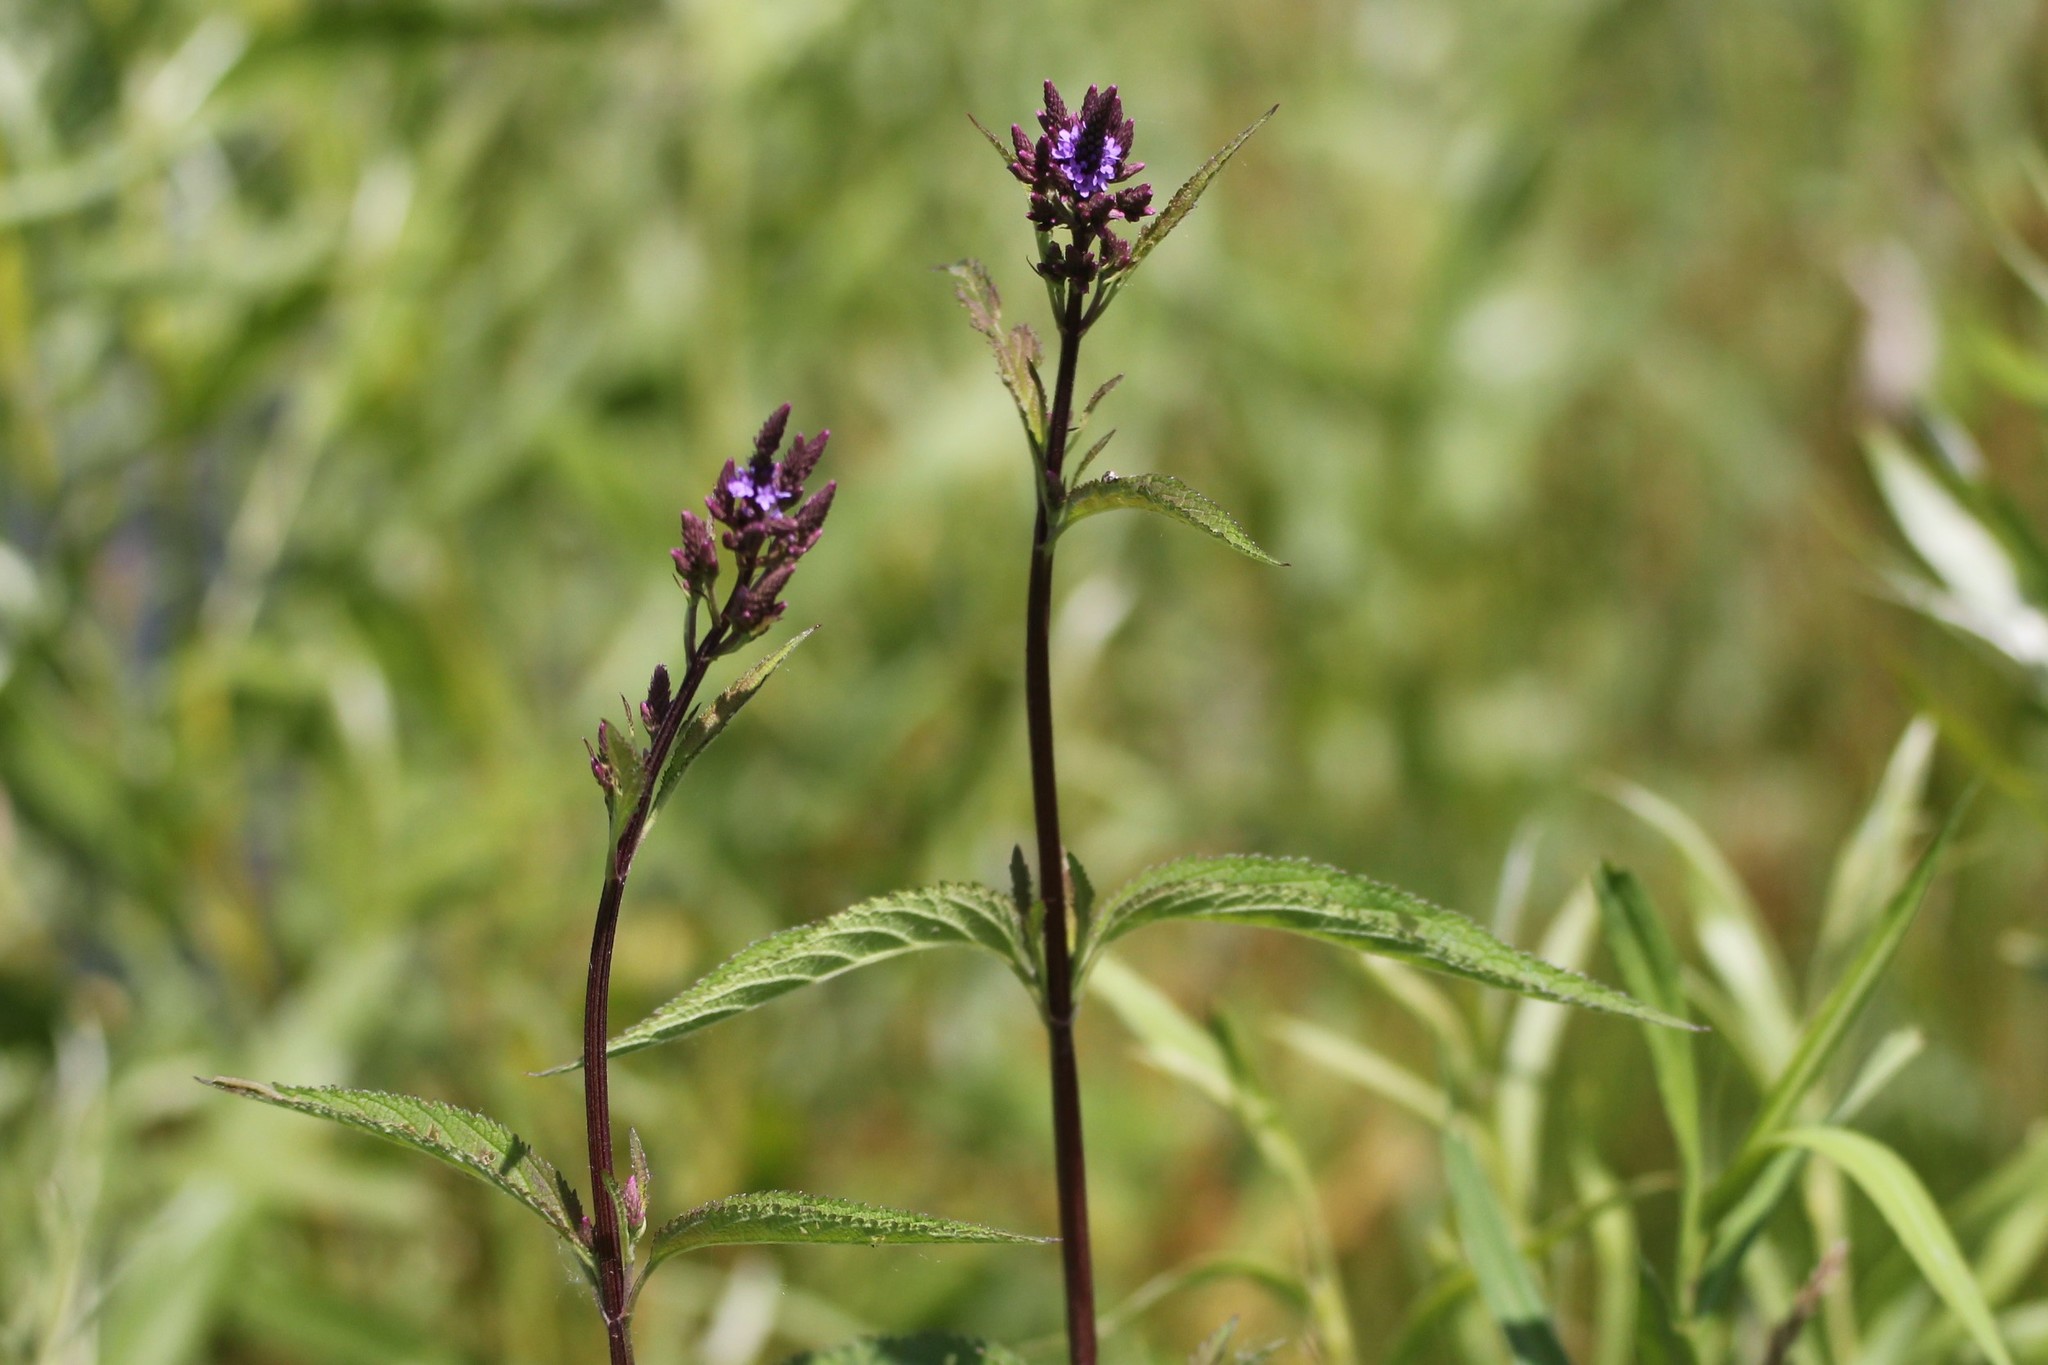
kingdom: Plantae
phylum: Tracheophyta
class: Magnoliopsida
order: Lamiales
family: Verbenaceae
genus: Verbena
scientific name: Verbena hastata
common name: American blue vervain
